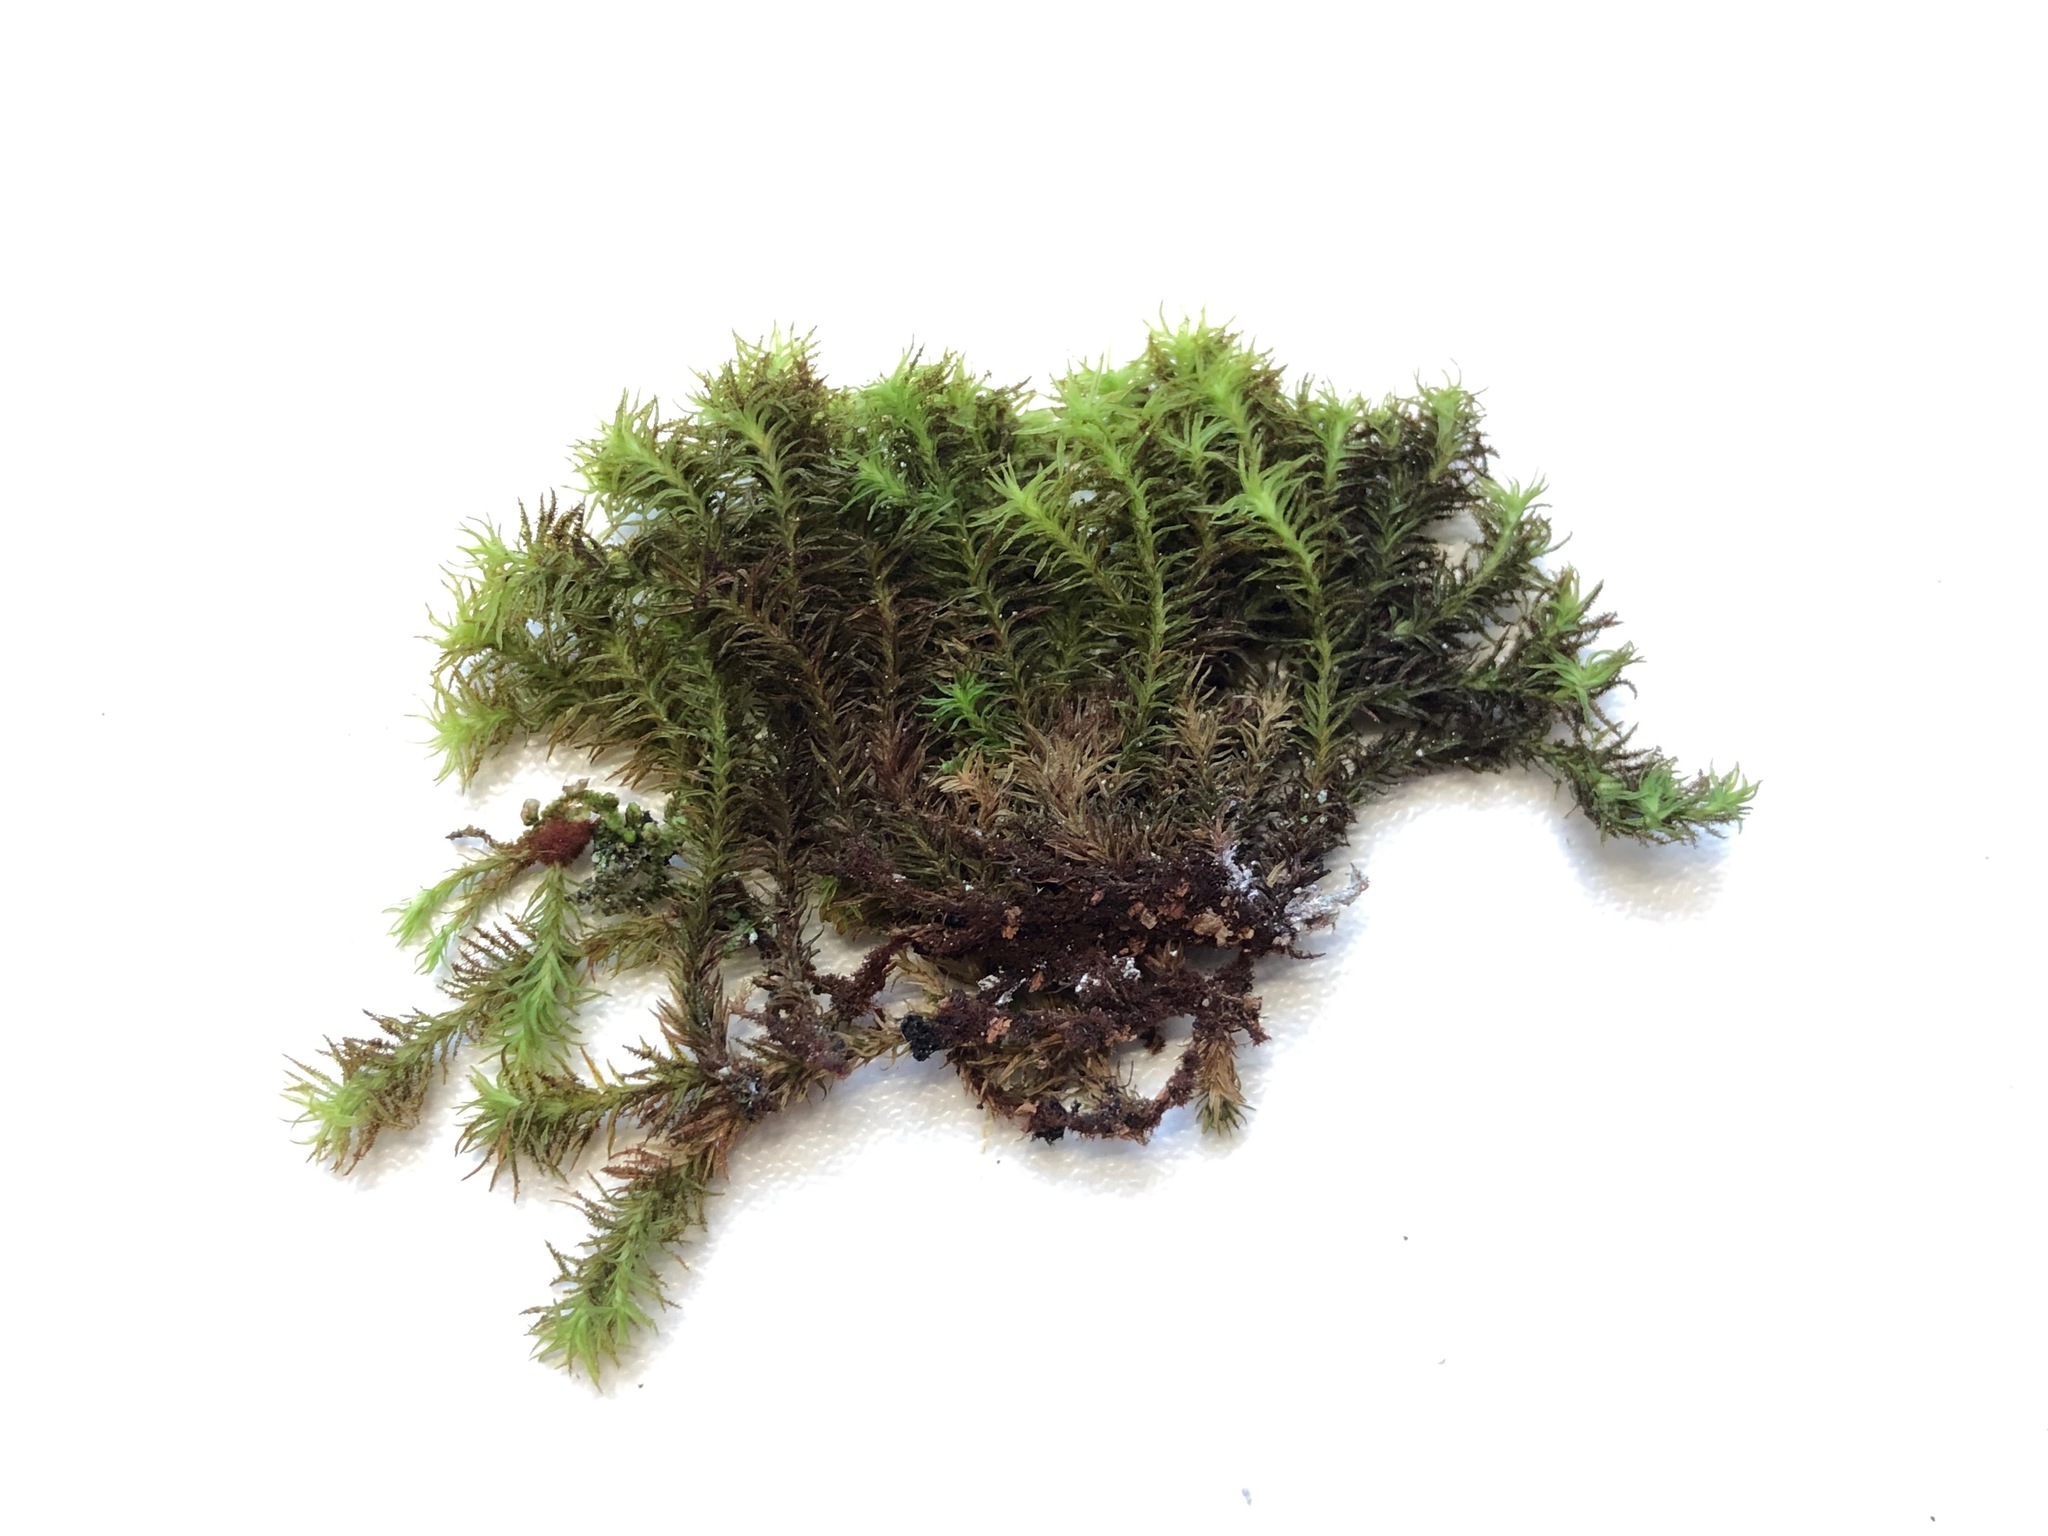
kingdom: Plantae
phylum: Bryophyta
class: Bryopsida
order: Orthotrichales
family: Orthotrichaceae
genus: Pulvigera
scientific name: Pulvigera lyellii
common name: Lyell's bristle-moss
